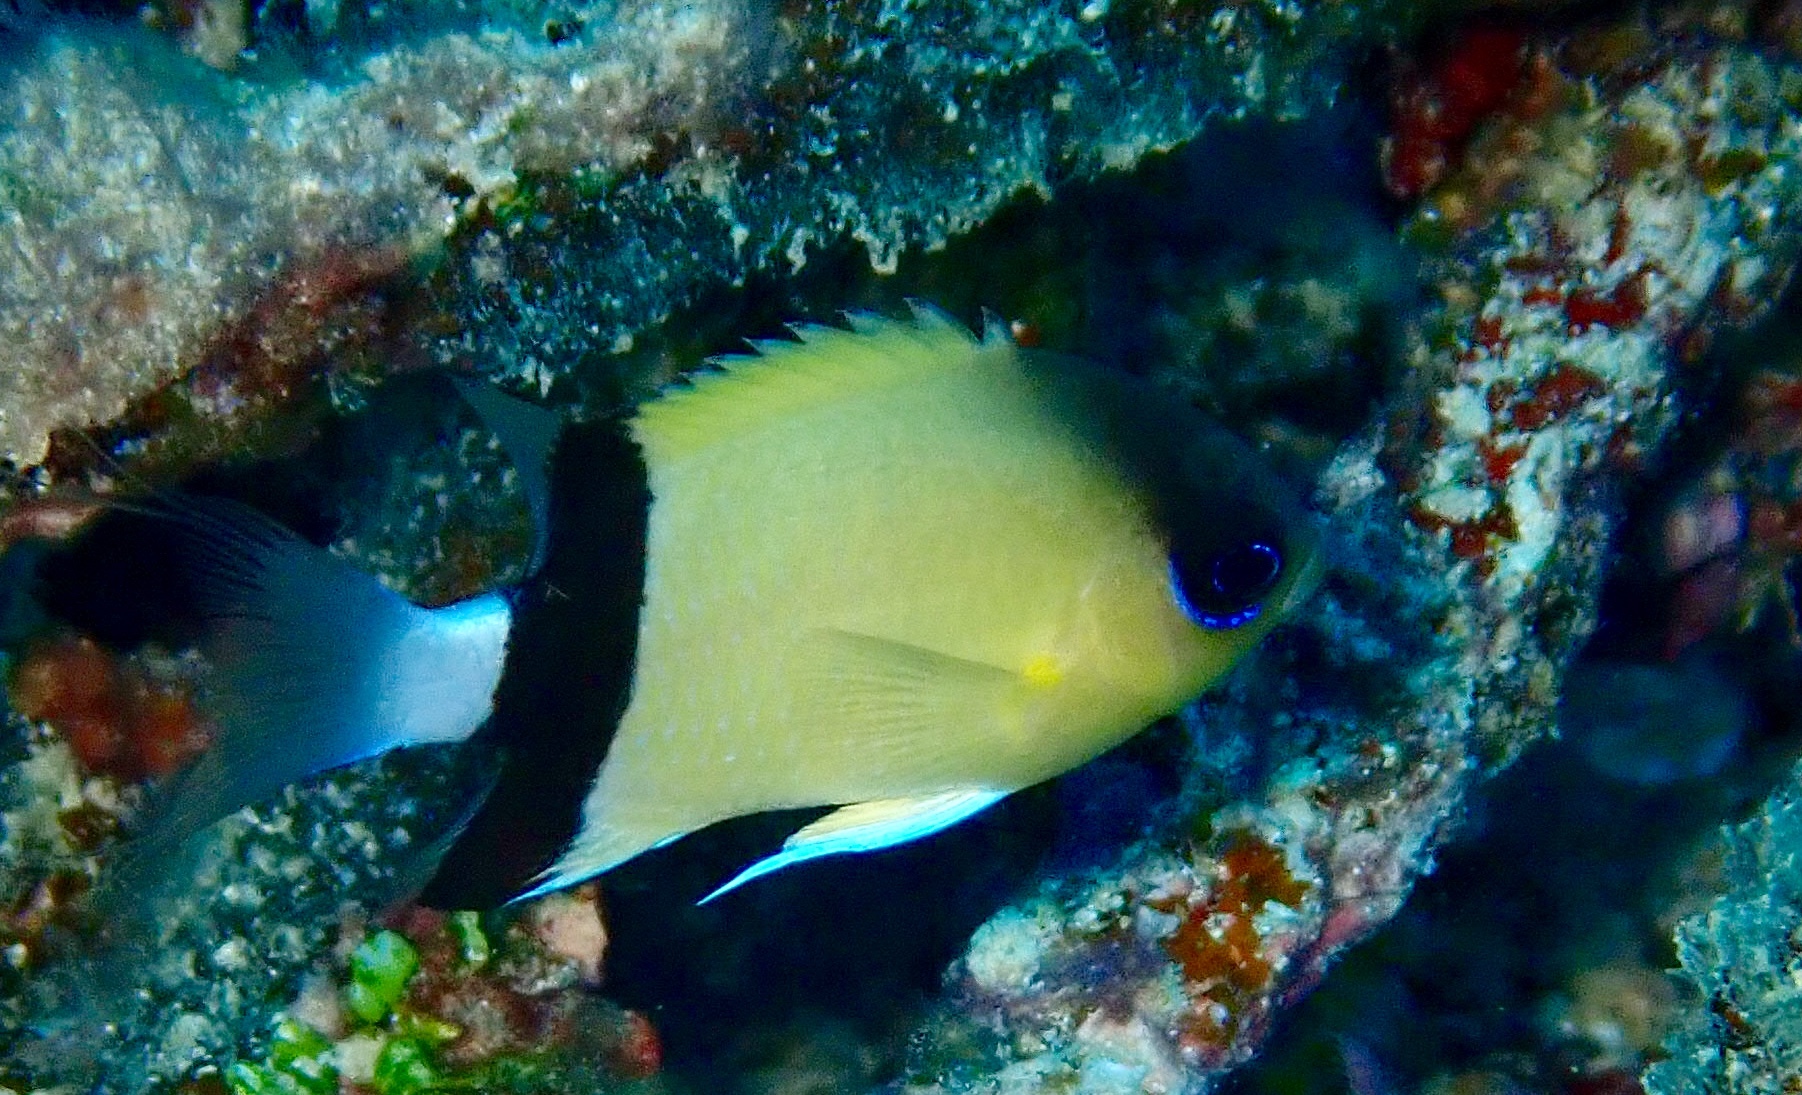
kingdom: Animalia
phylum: Chordata
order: Perciformes
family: Pomacentridae
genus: Chromis
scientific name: Chromis retrofasciata
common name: Black-bar chromis
